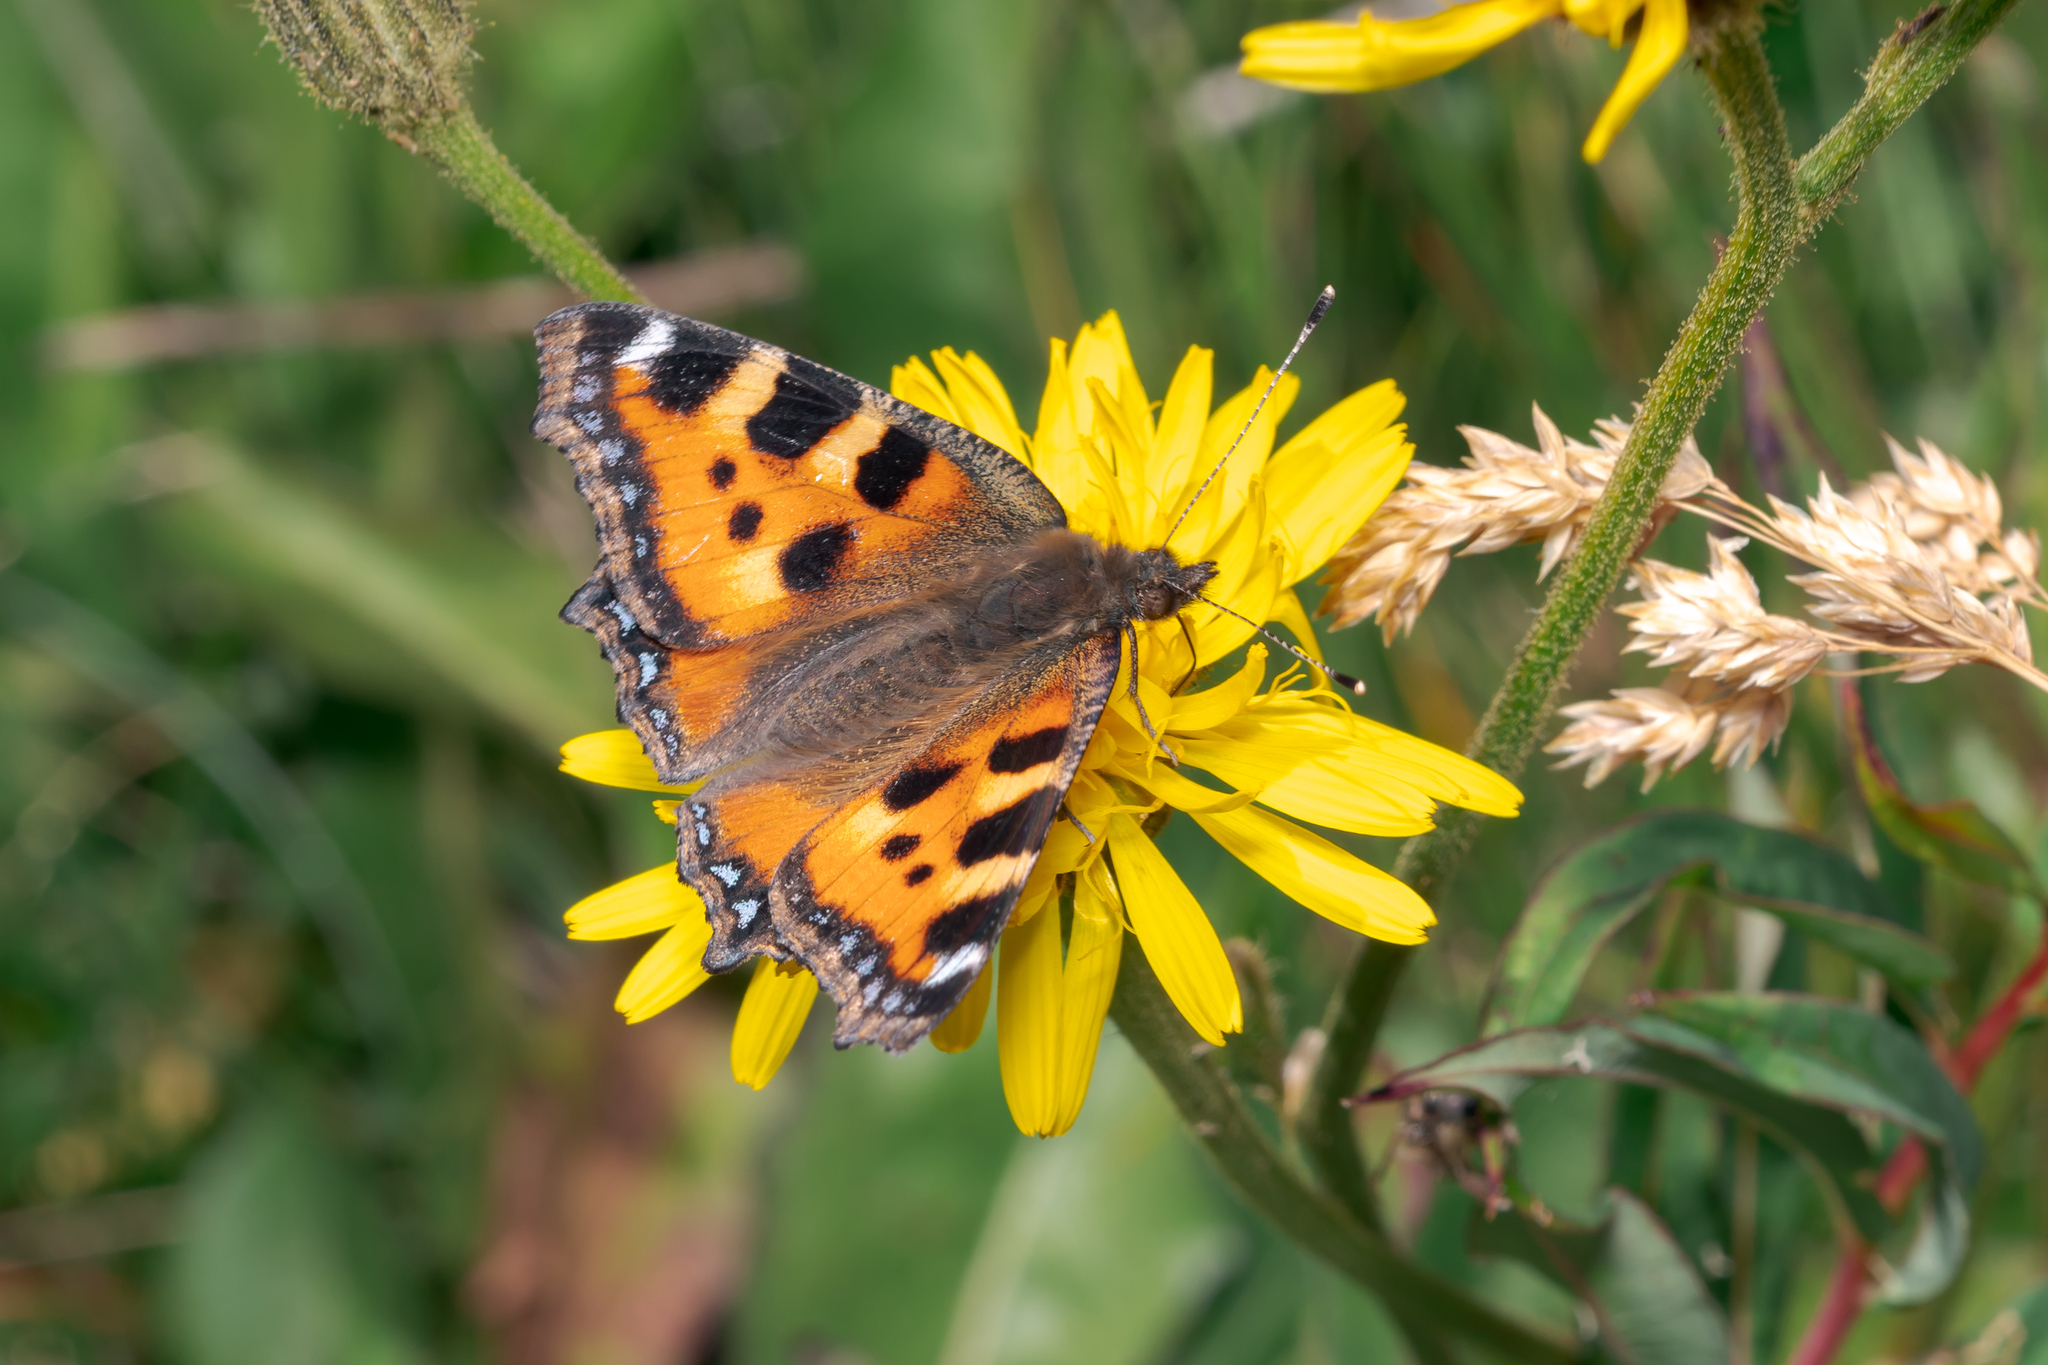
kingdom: Animalia
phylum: Arthropoda
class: Insecta
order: Lepidoptera
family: Nymphalidae
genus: Aglais
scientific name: Aglais urticae
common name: Small tortoiseshell
